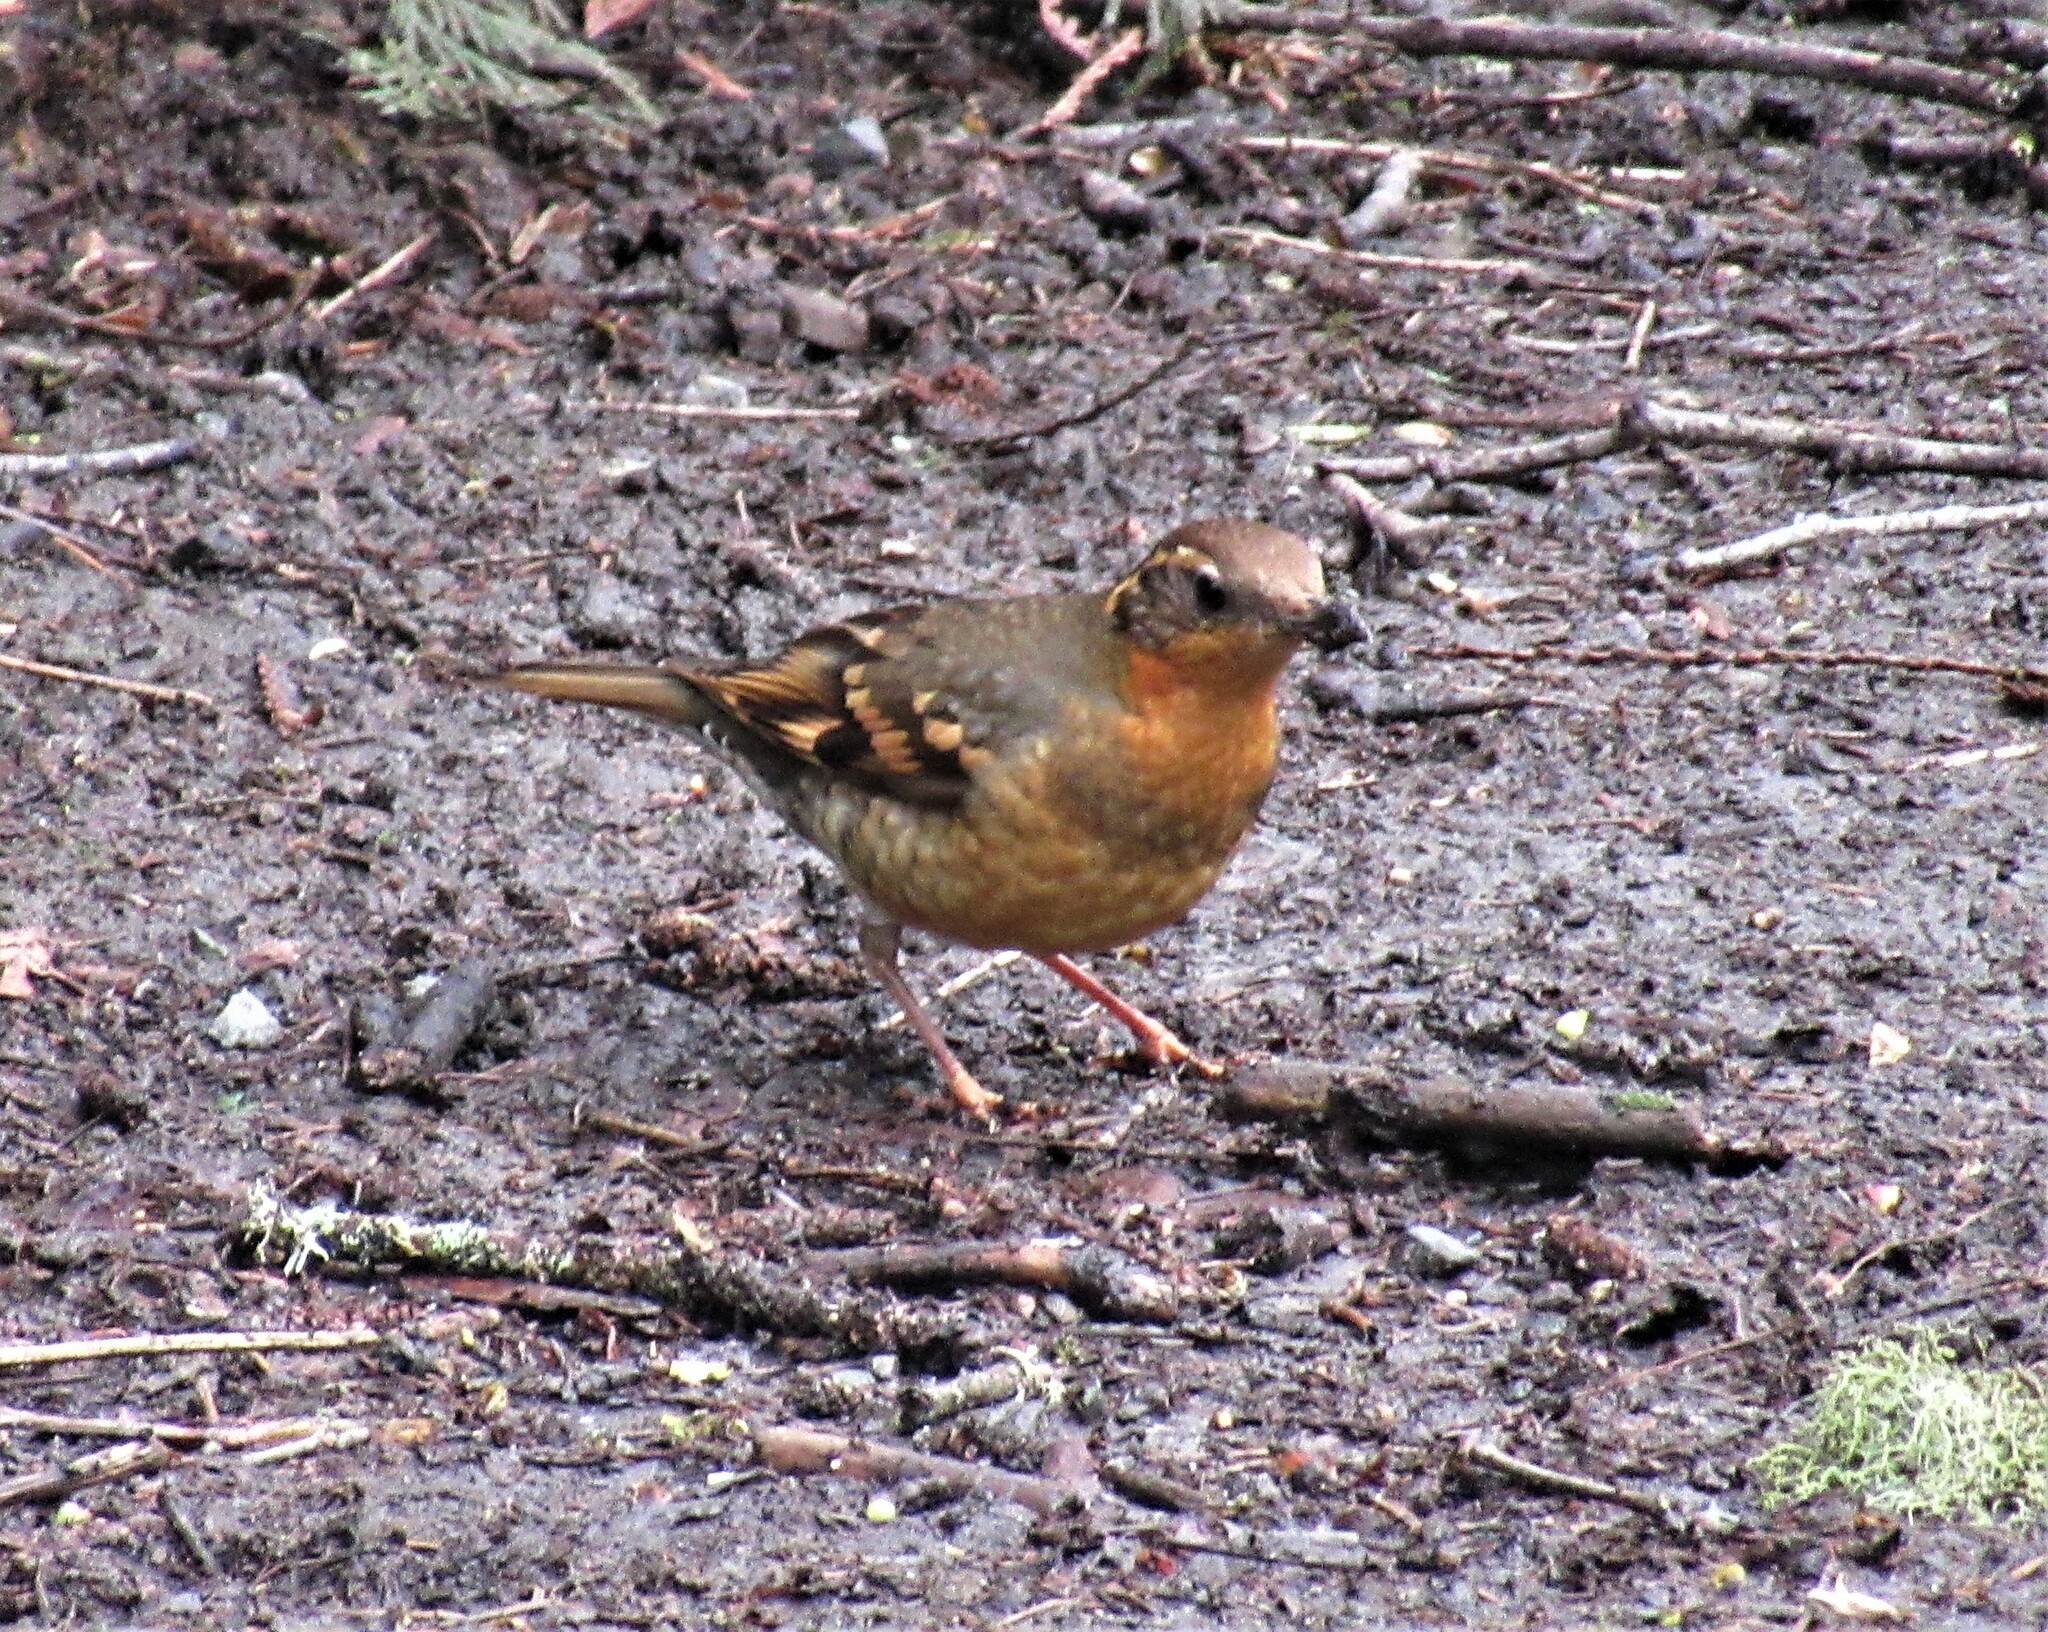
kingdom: Animalia
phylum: Chordata
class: Aves
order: Passeriformes
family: Turdidae
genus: Ixoreus
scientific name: Ixoreus naevius
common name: Varied thrush
